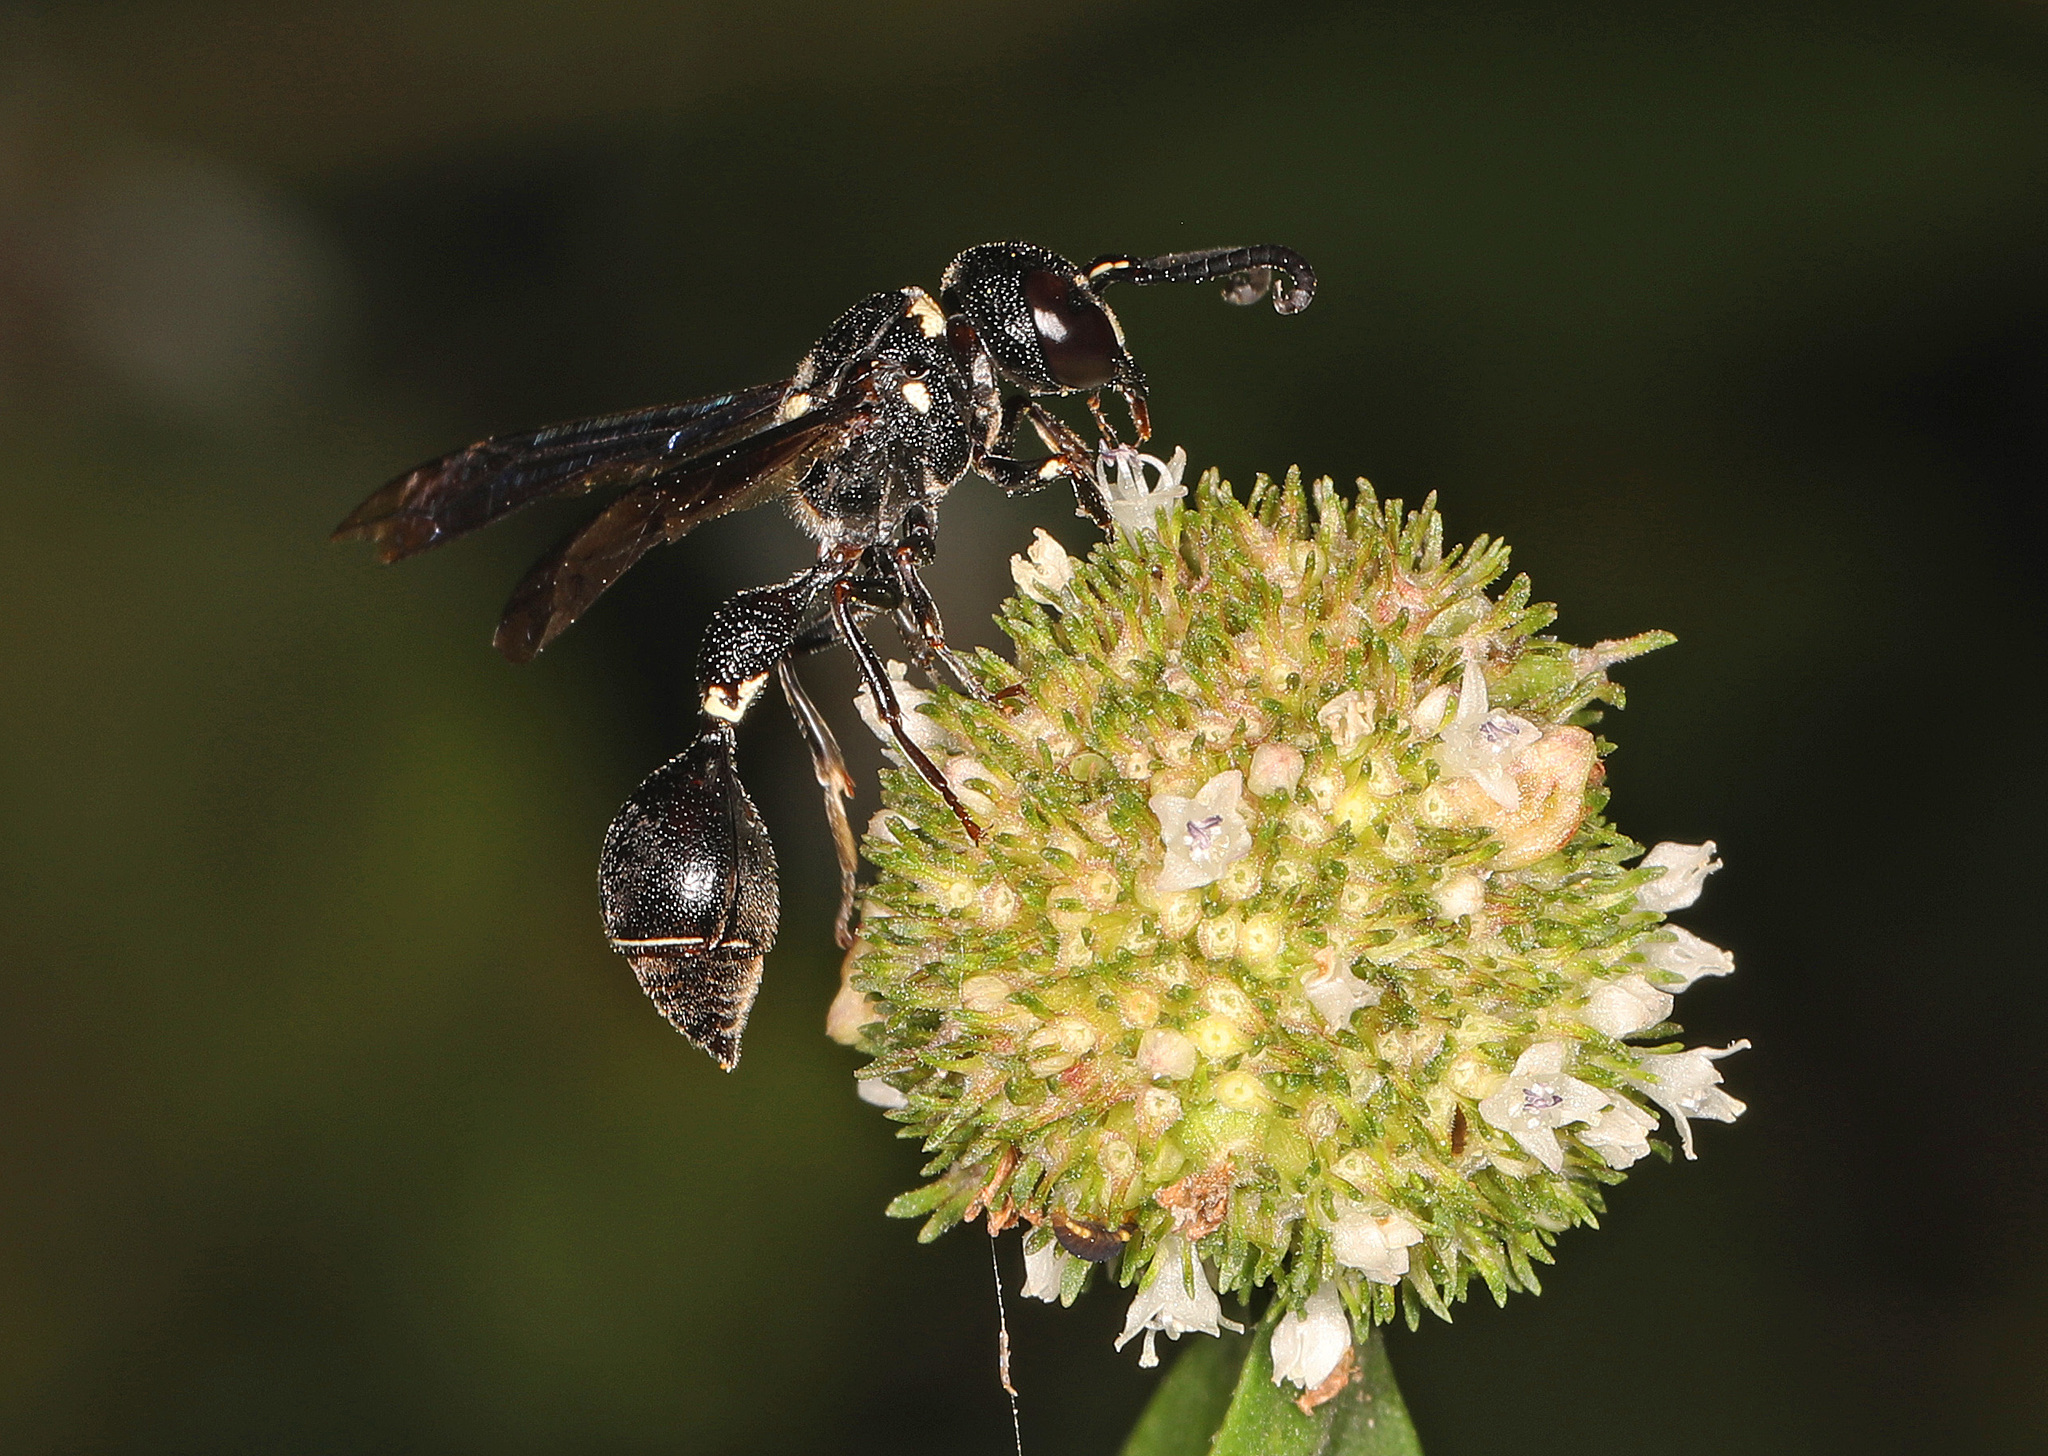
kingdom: Animalia
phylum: Arthropoda
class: Insecta
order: Hymenoptera
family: Eumenidae
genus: Zethus
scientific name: Zethus spinipes
